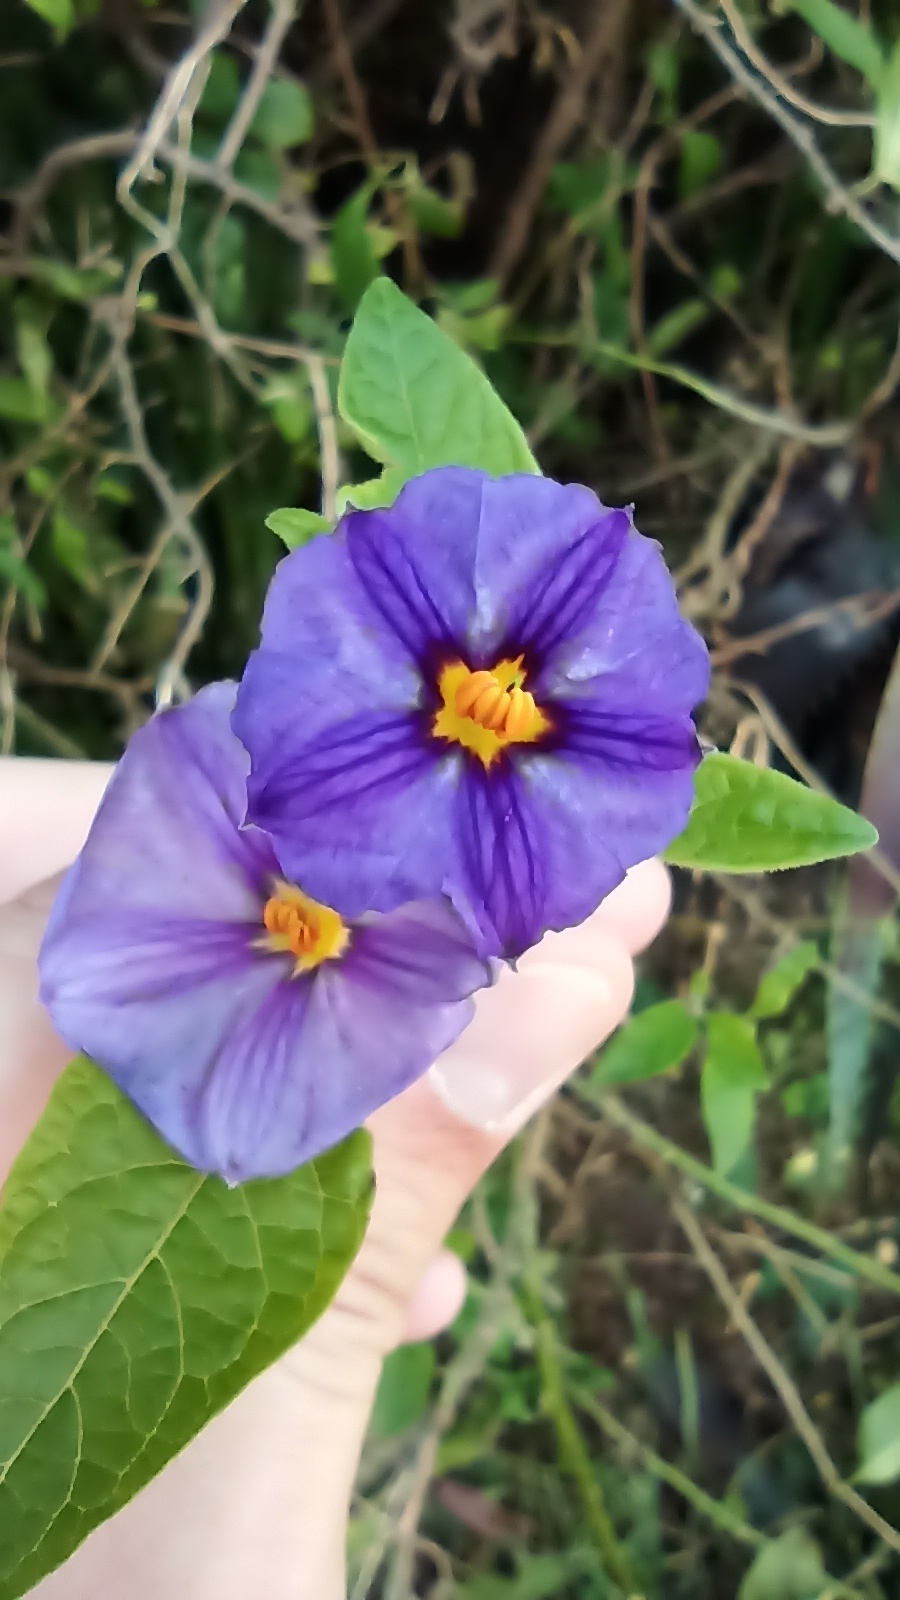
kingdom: Plantae
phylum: Tracheophyta
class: Magnoliopsida
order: Solanales
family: Solanaceae
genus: Lycianthes
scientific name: Lycianthes rantonnetii
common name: Blue potatobush
